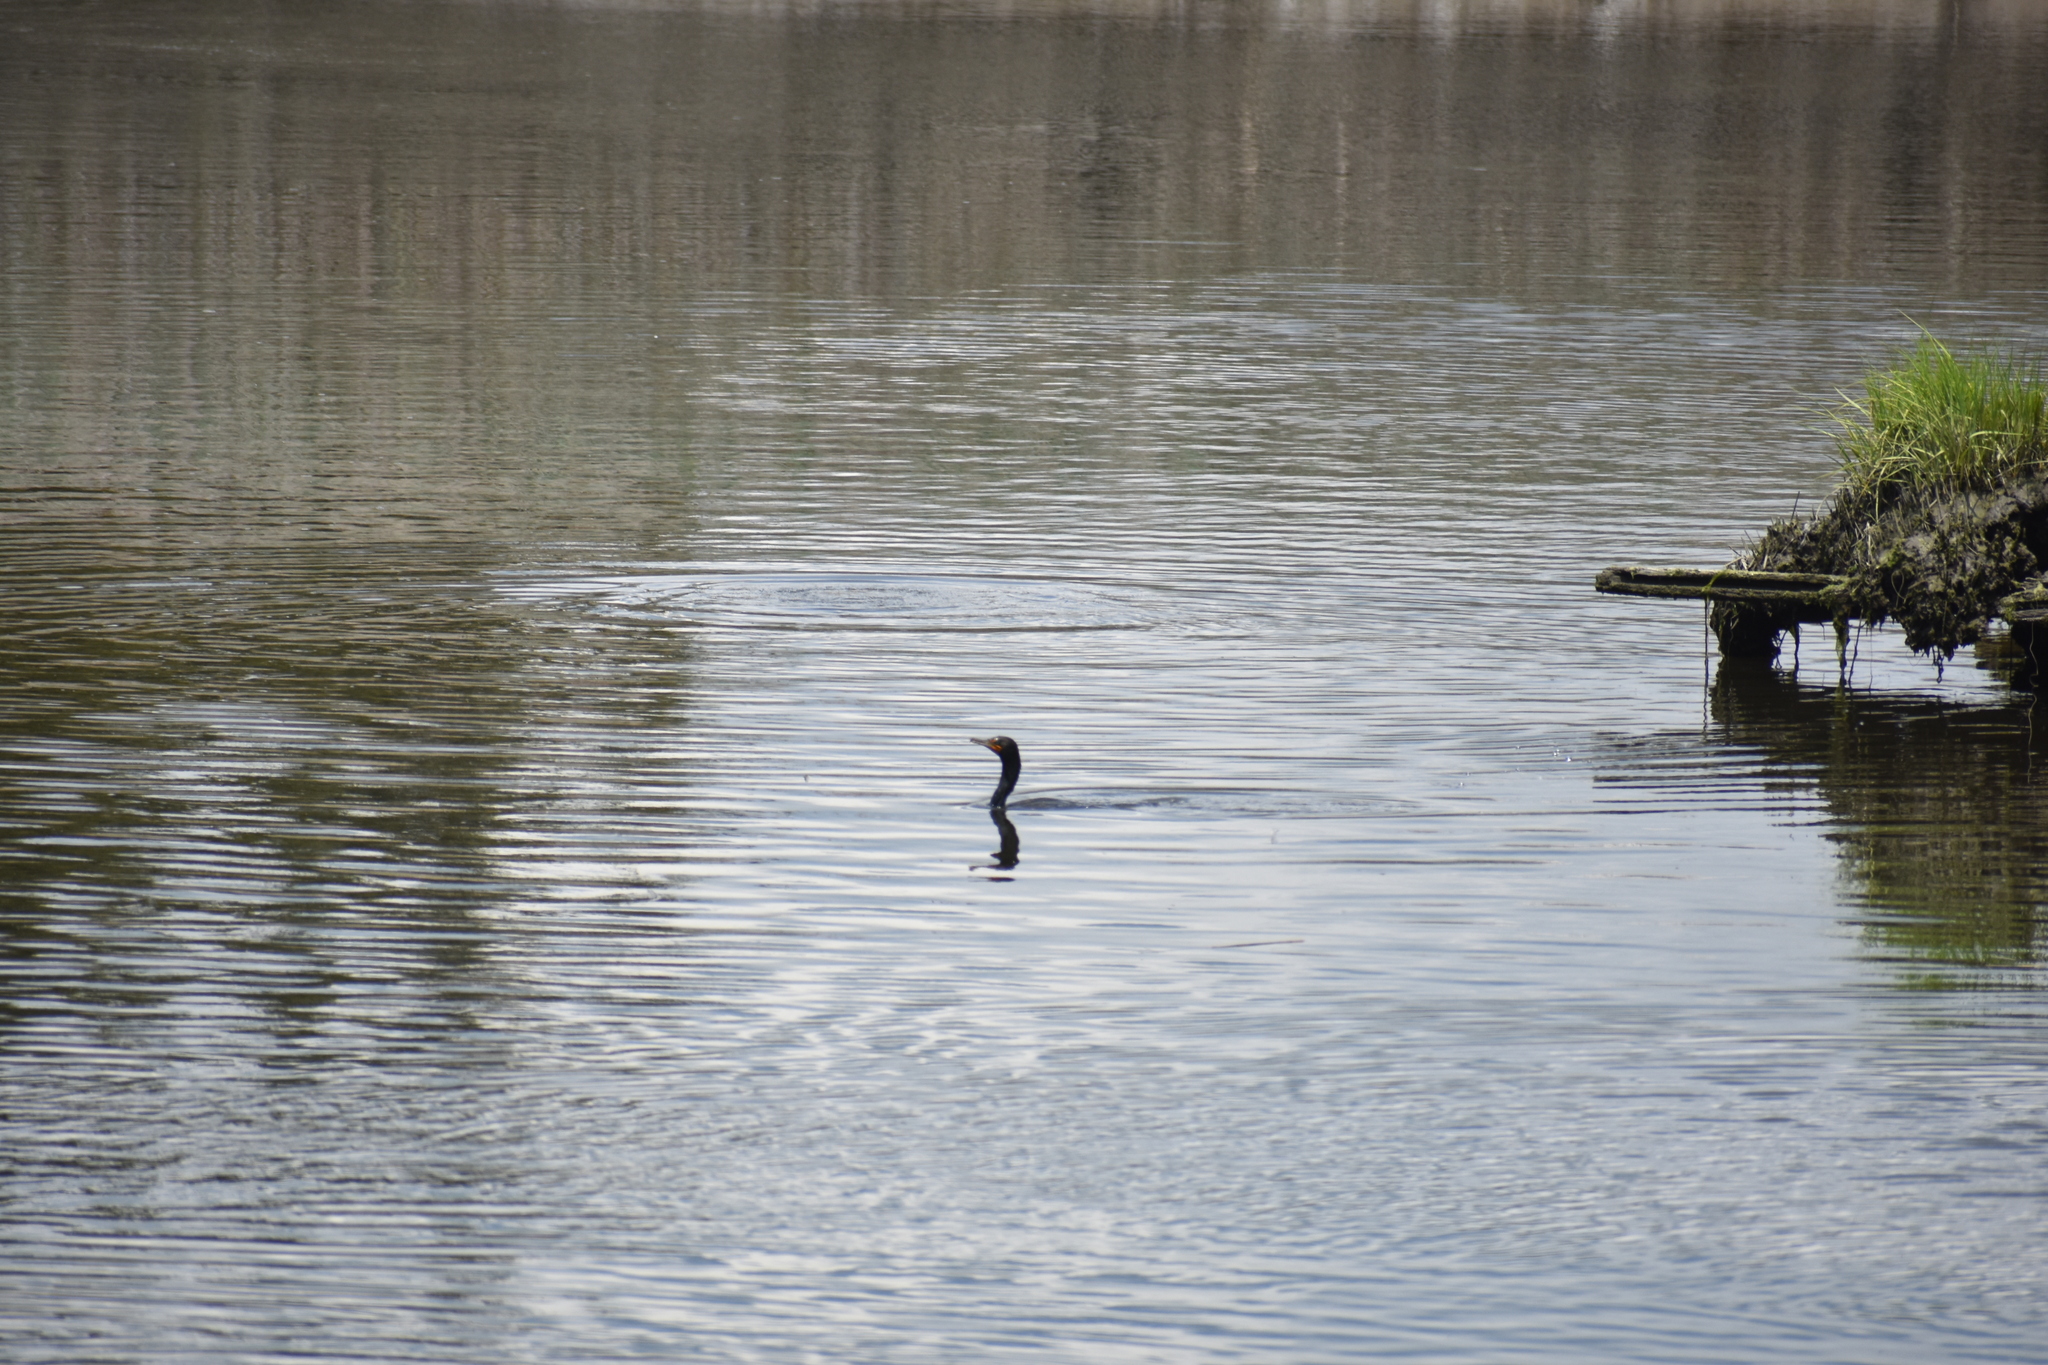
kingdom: Animalia
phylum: Chordata
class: Aves
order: Suliformes
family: Phalacrocoracidae
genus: Phalacrocorax
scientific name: Phalacrocorax auritus
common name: Double-crested cormorant
